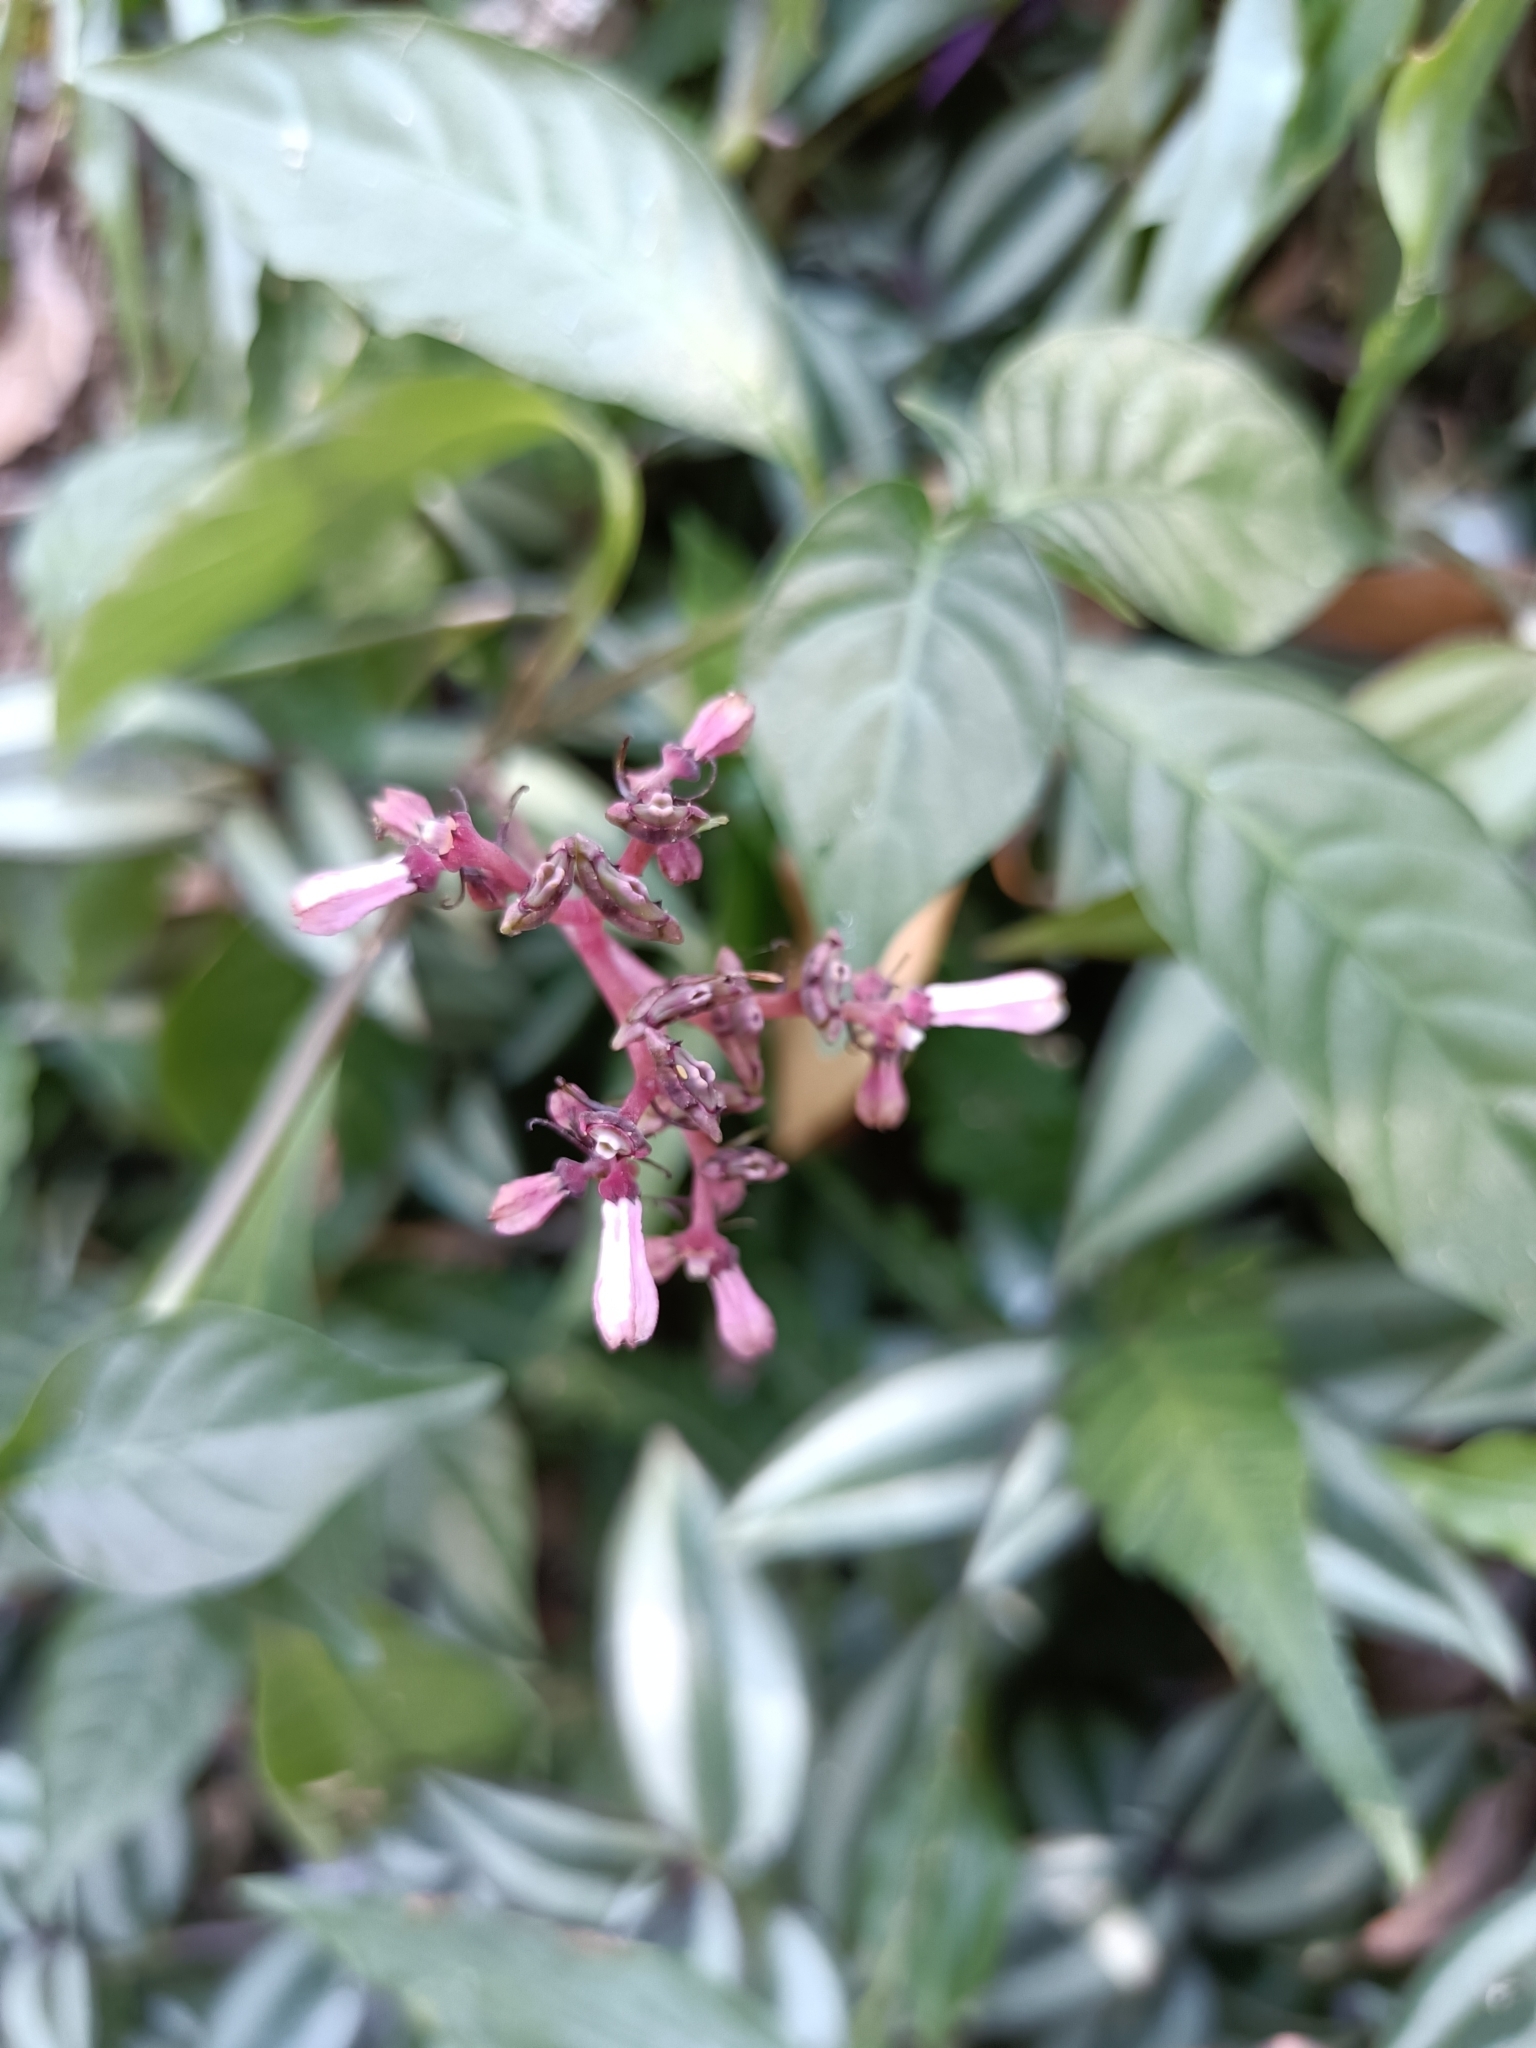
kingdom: Plantae
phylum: Tracheophyta
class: Magnoliopsida
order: Gentianales
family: Rubiaceae
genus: Ophiorrhiza
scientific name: Ophiorrhiza japonica
